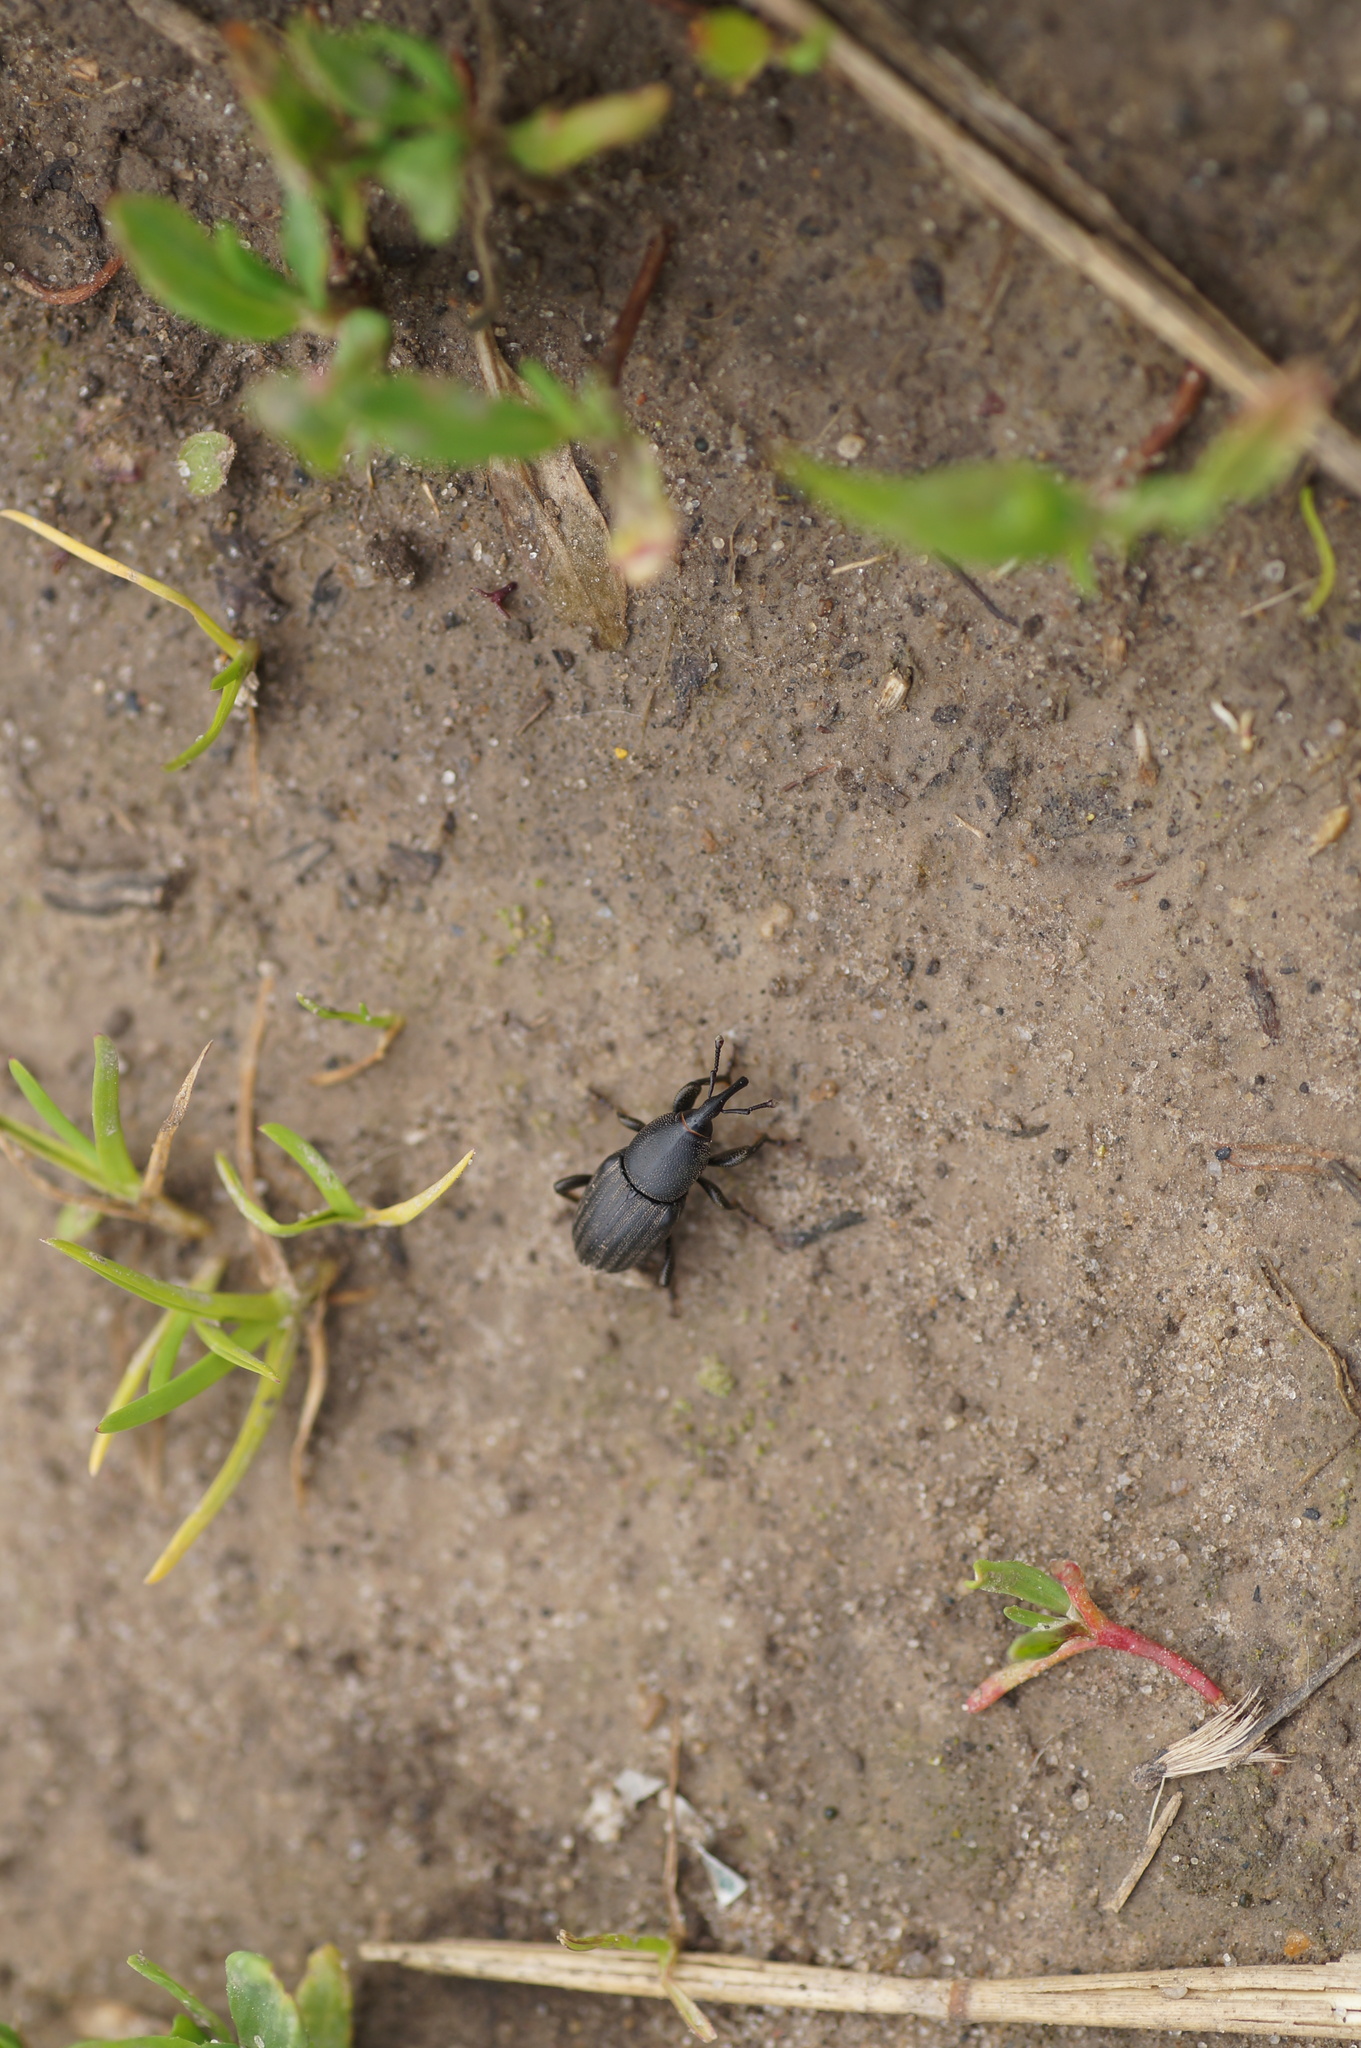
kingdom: Animalia
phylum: Arthropoda
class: Insecta
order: Coleoptera
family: Dryophthoridae
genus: Sphenophorus
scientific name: Sphenophorus striatopunctatus
